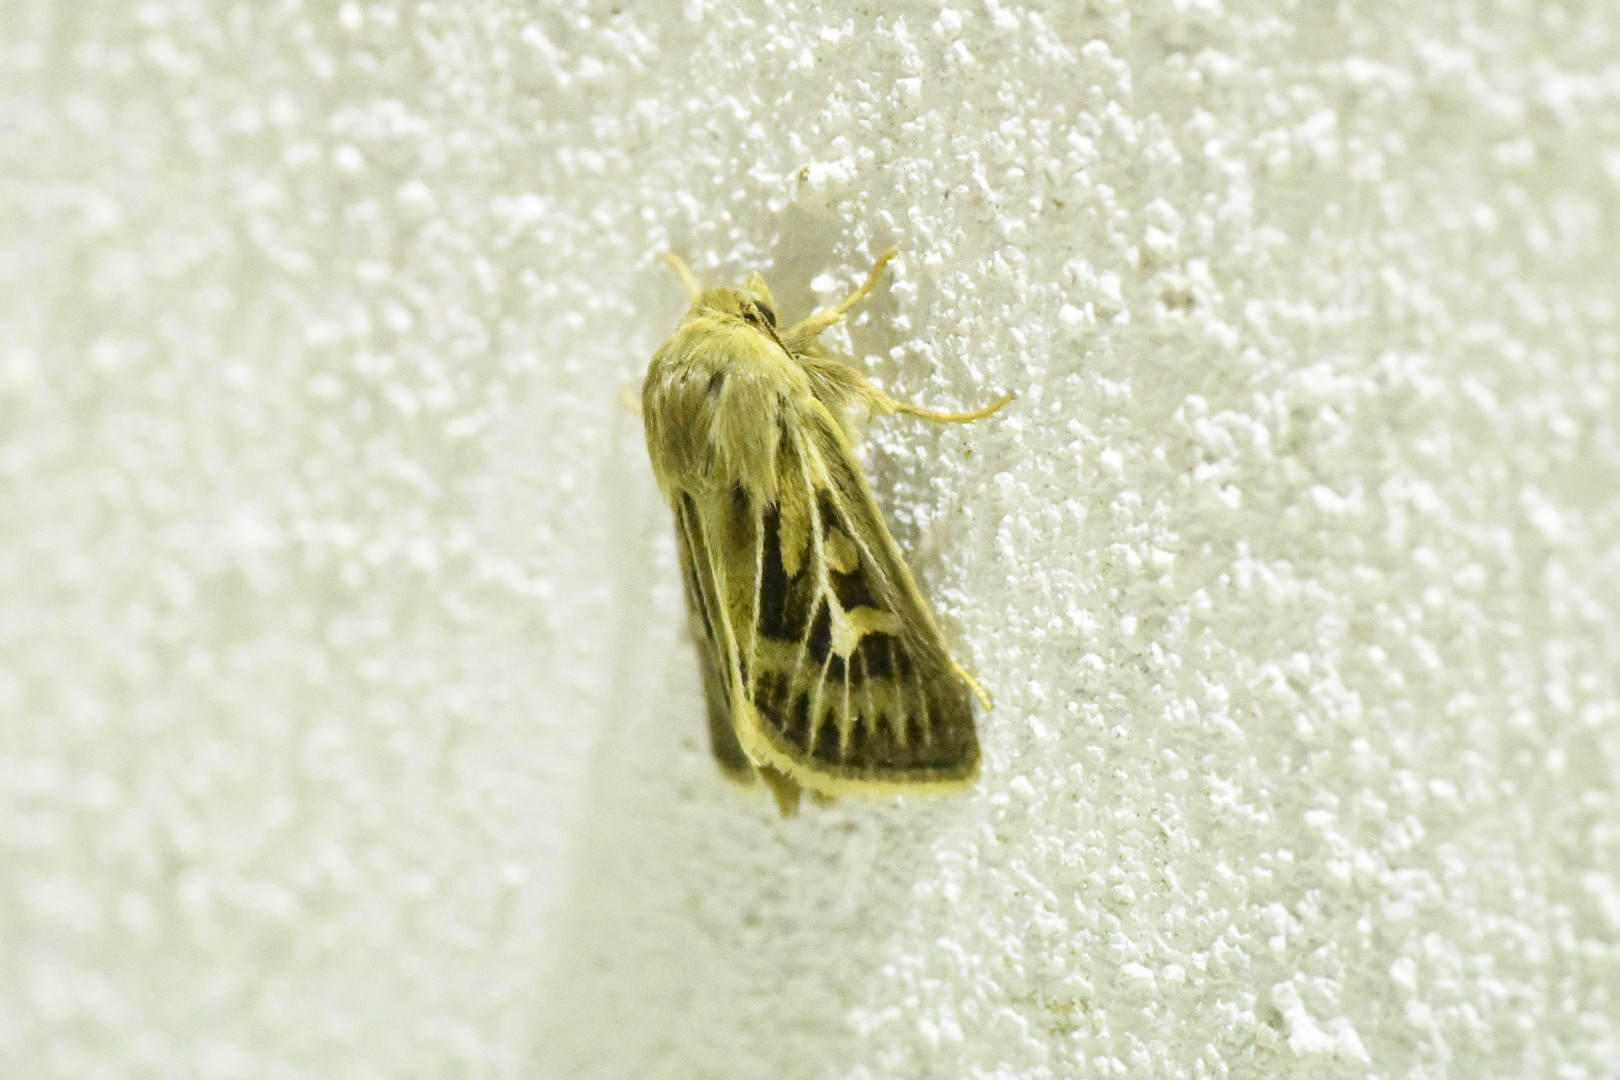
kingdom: Animalia
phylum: Arthropoda
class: Insecta
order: Lepidoptera
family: Noctuidae
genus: Cerapteryx
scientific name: Cerapteryx graminis
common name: Antler moth
